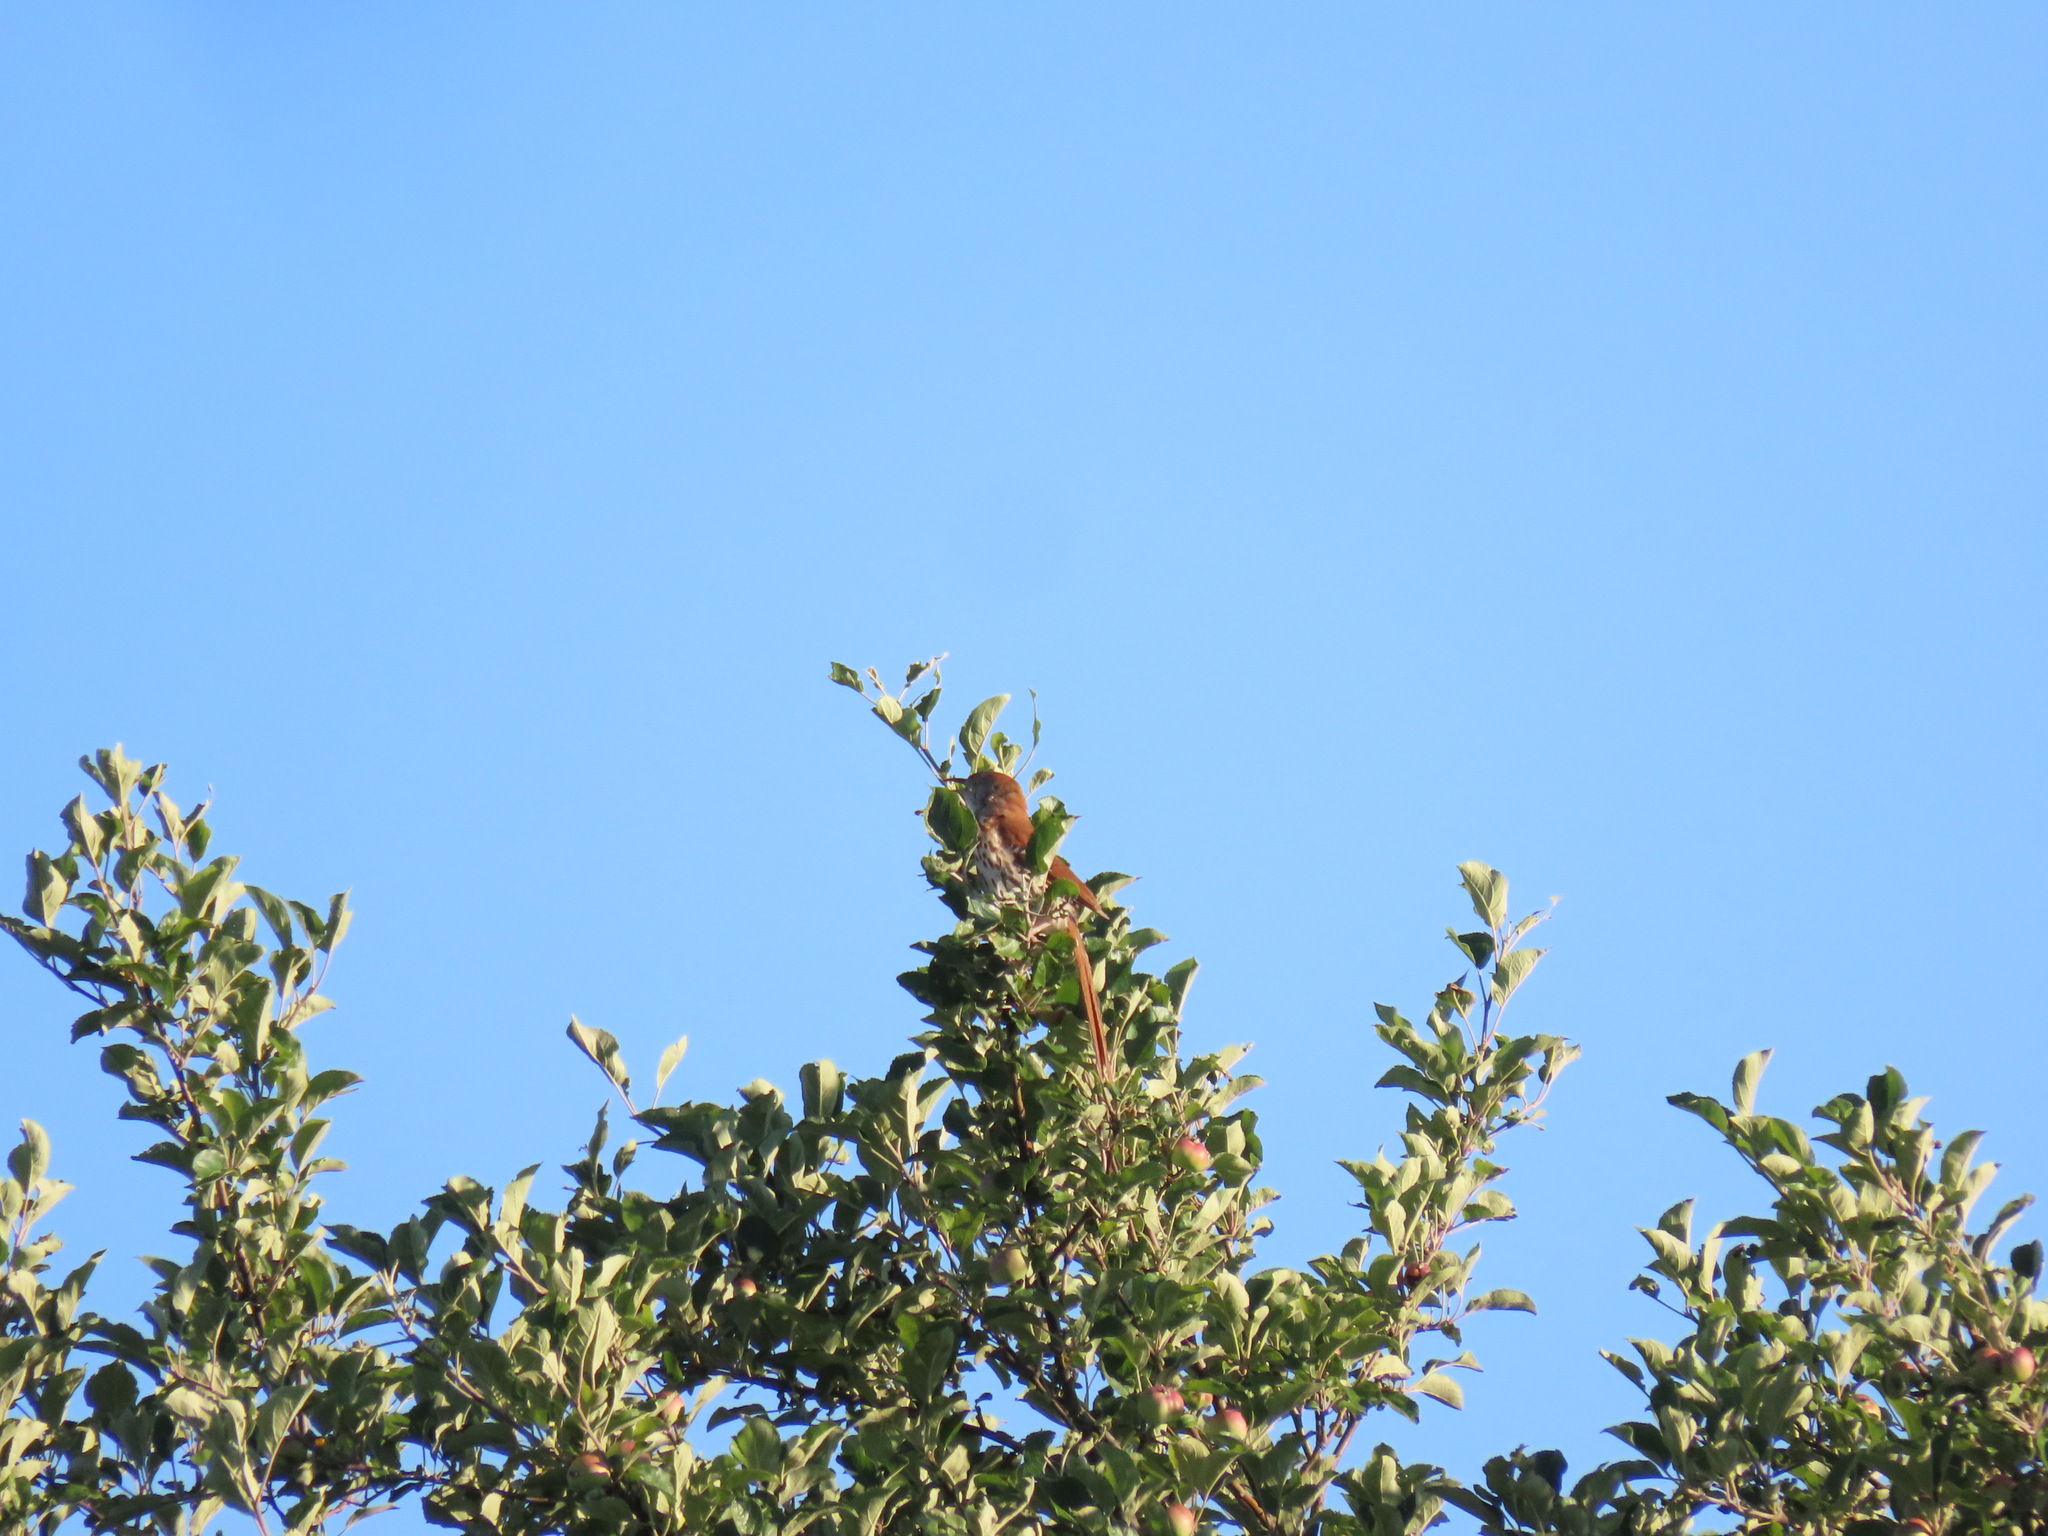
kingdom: Animalia
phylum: Chordata
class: Aves
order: Passeriformes
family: Mimidae
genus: Toxostoma
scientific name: Toxostoma rufum
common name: Brown thrasher
